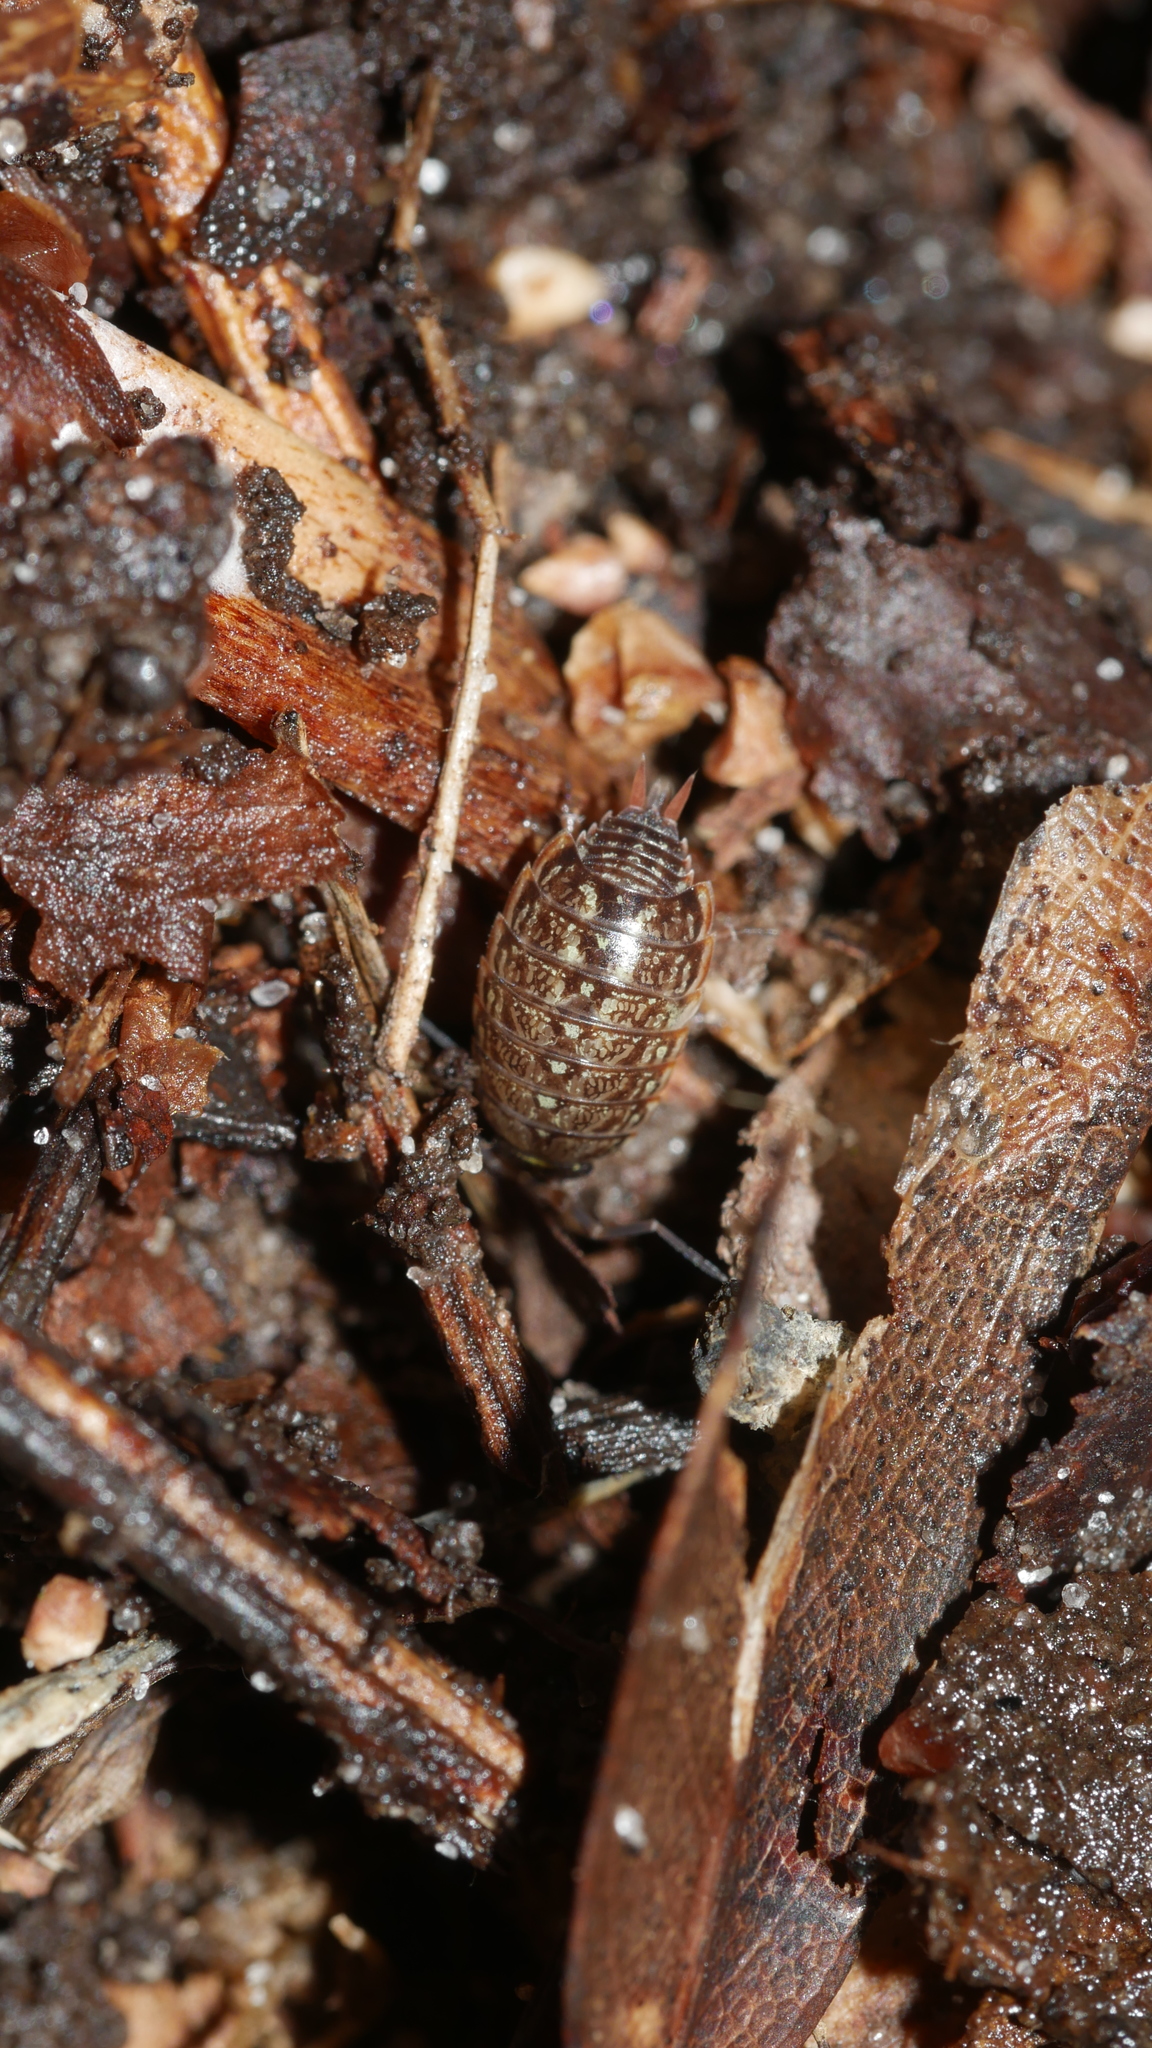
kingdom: Animalia
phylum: Arthropoda
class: Malacostraca
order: Isopoda
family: Philosciidae
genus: Philoscia
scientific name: Philoscia muscorum
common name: Common striped woodlouse
